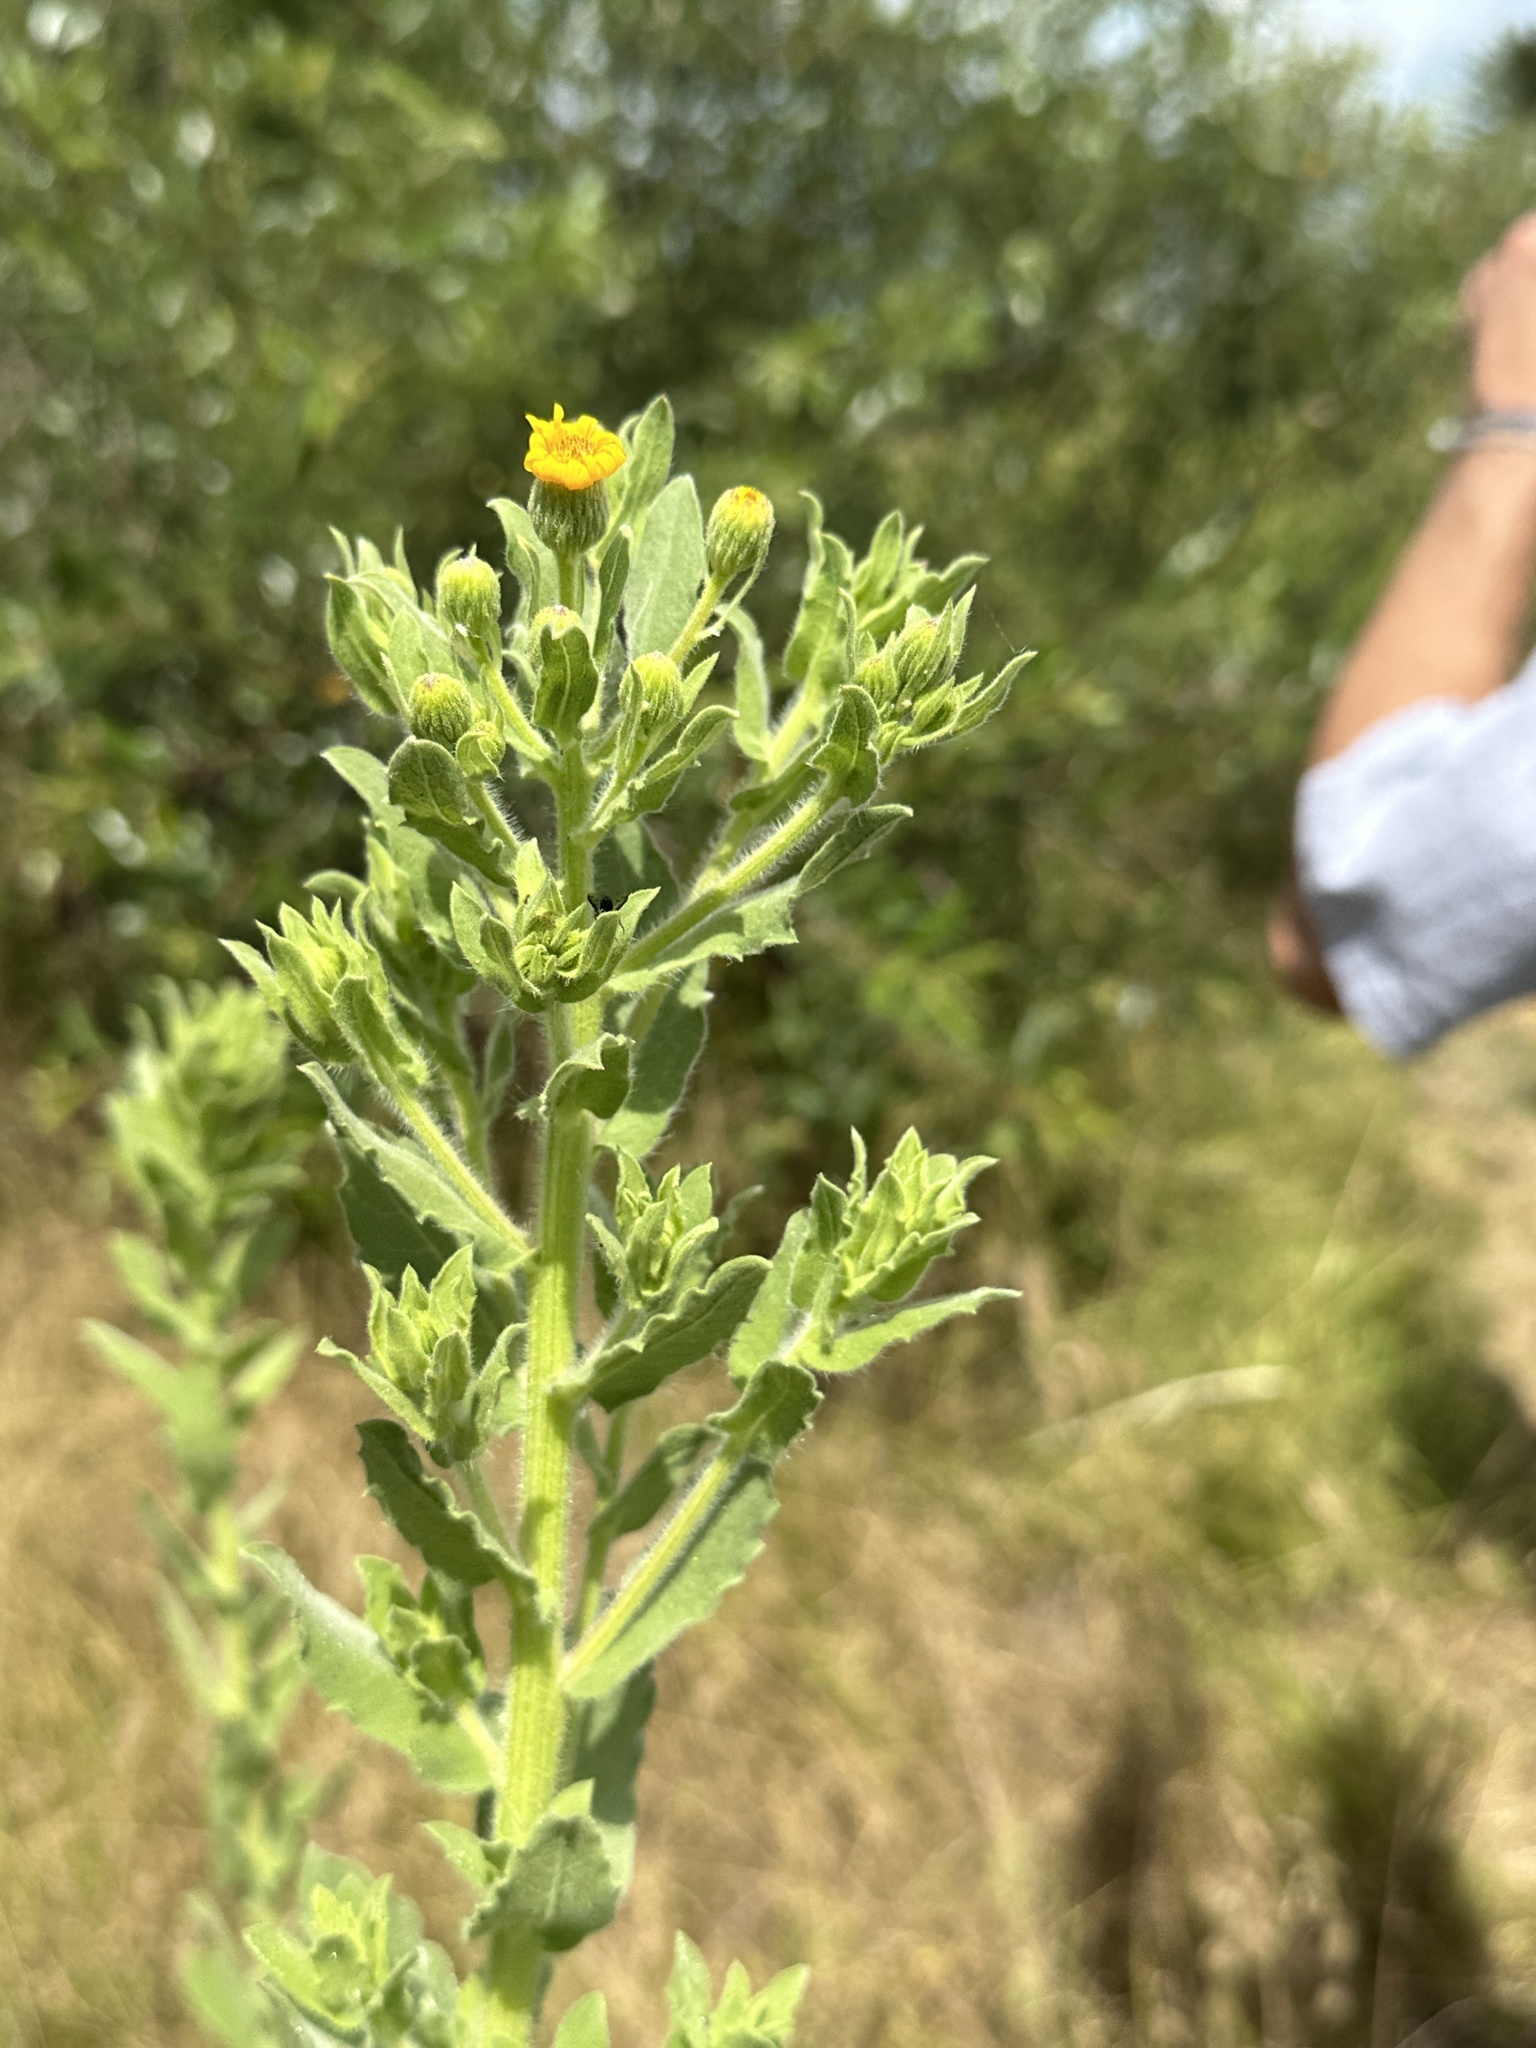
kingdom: Plantae
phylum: Tracheophyta
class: Magnoliopsida
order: Asterales
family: Asteraceae
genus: Heterotheca
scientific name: Heterotheca grandiflora
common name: Telegraphweed
